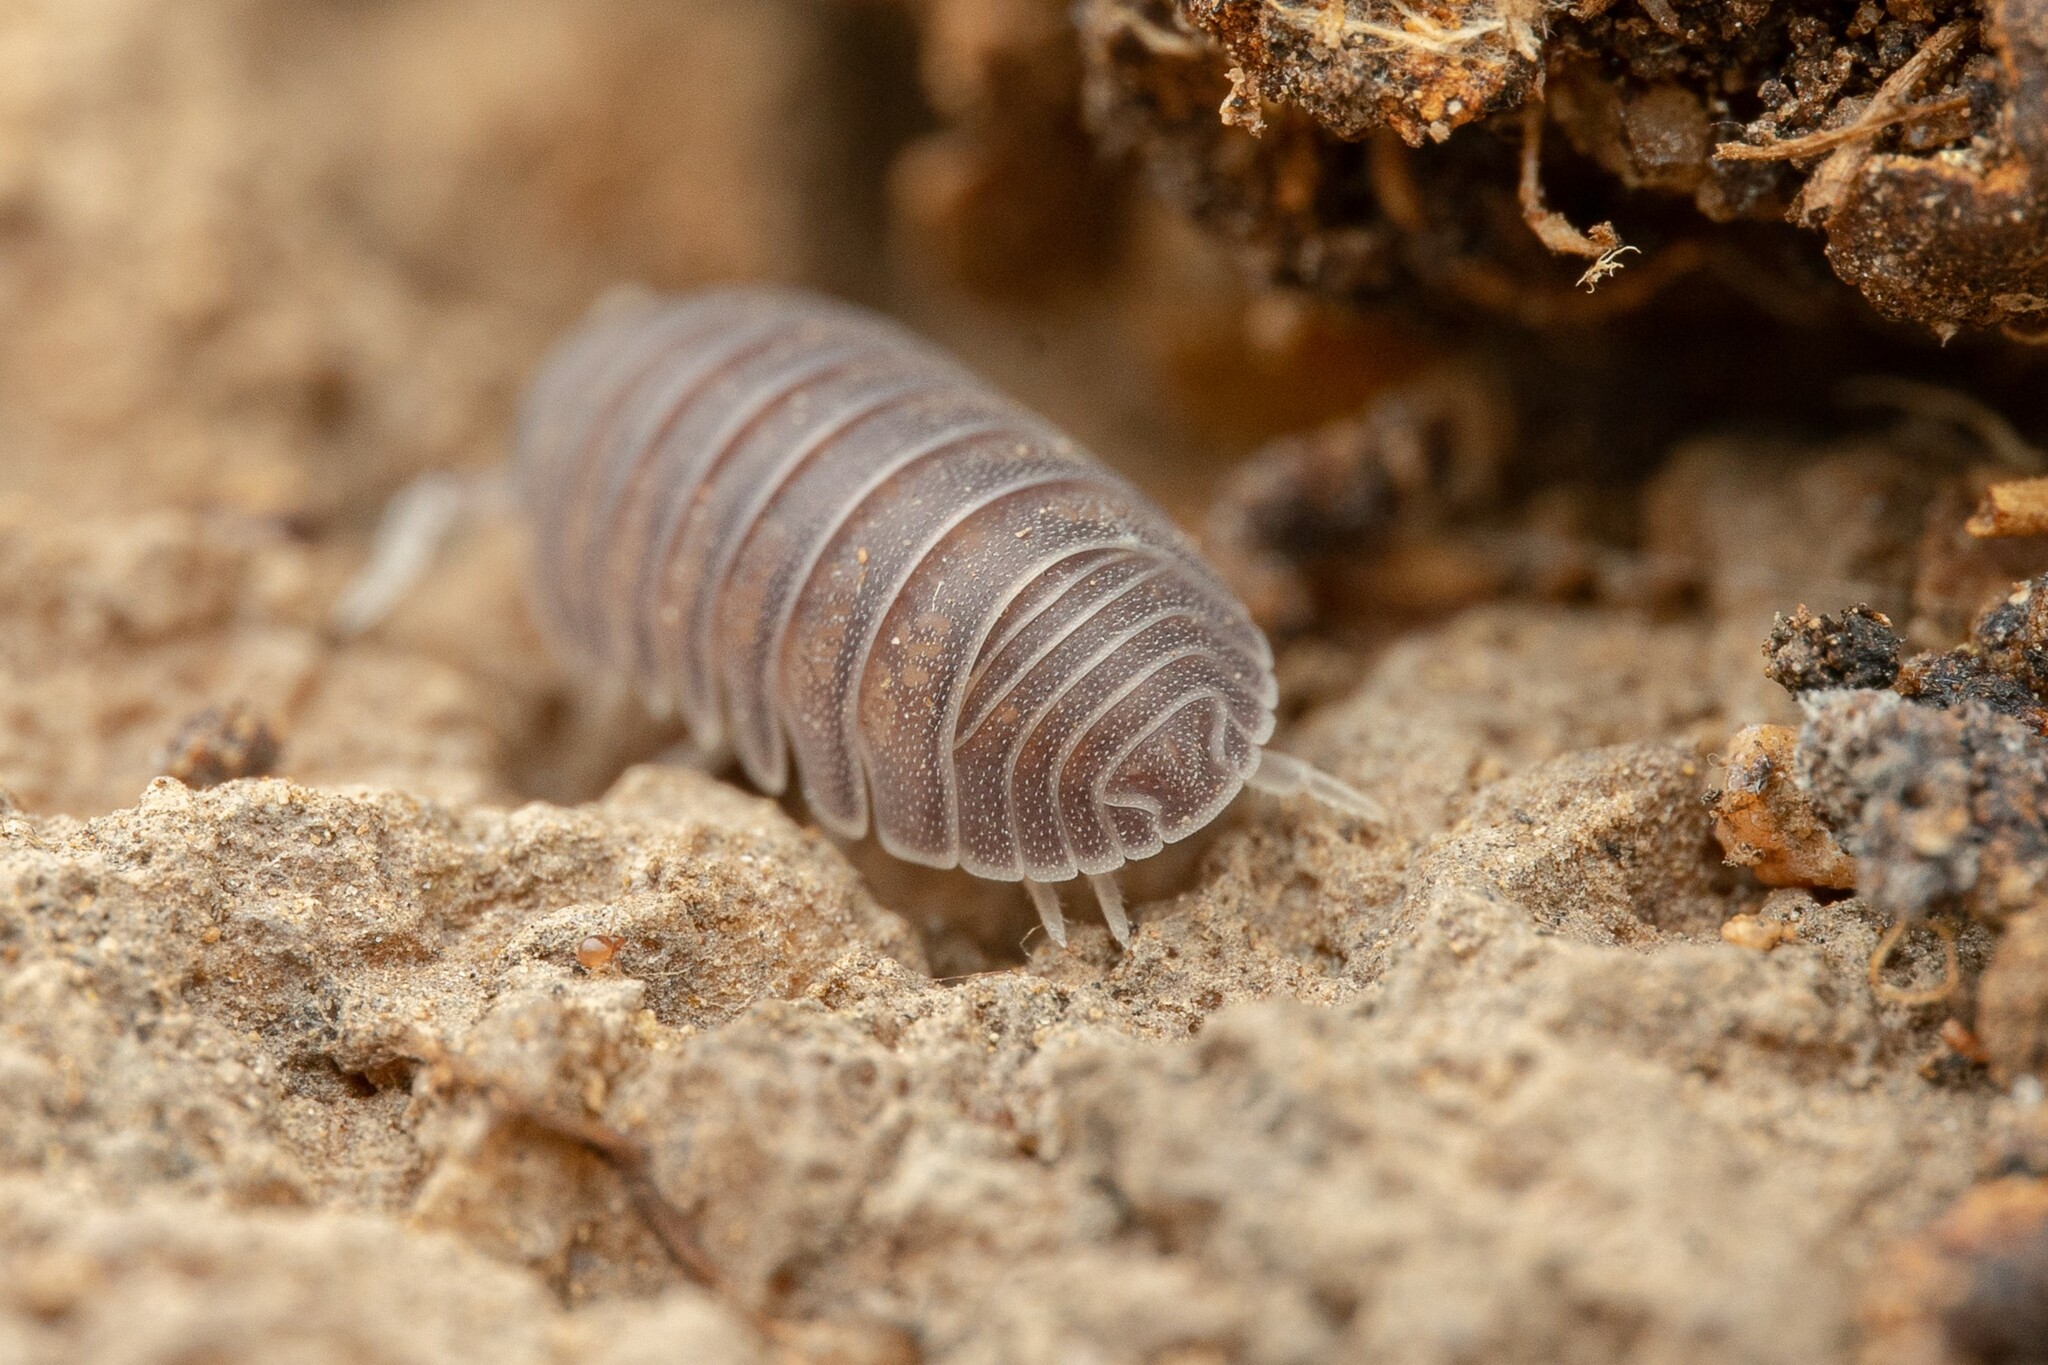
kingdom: Animalia
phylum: Arthropoda
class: Malacostraca
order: Isopoda
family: Armadillidae
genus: Venezillo
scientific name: Venezillo arizonicus
